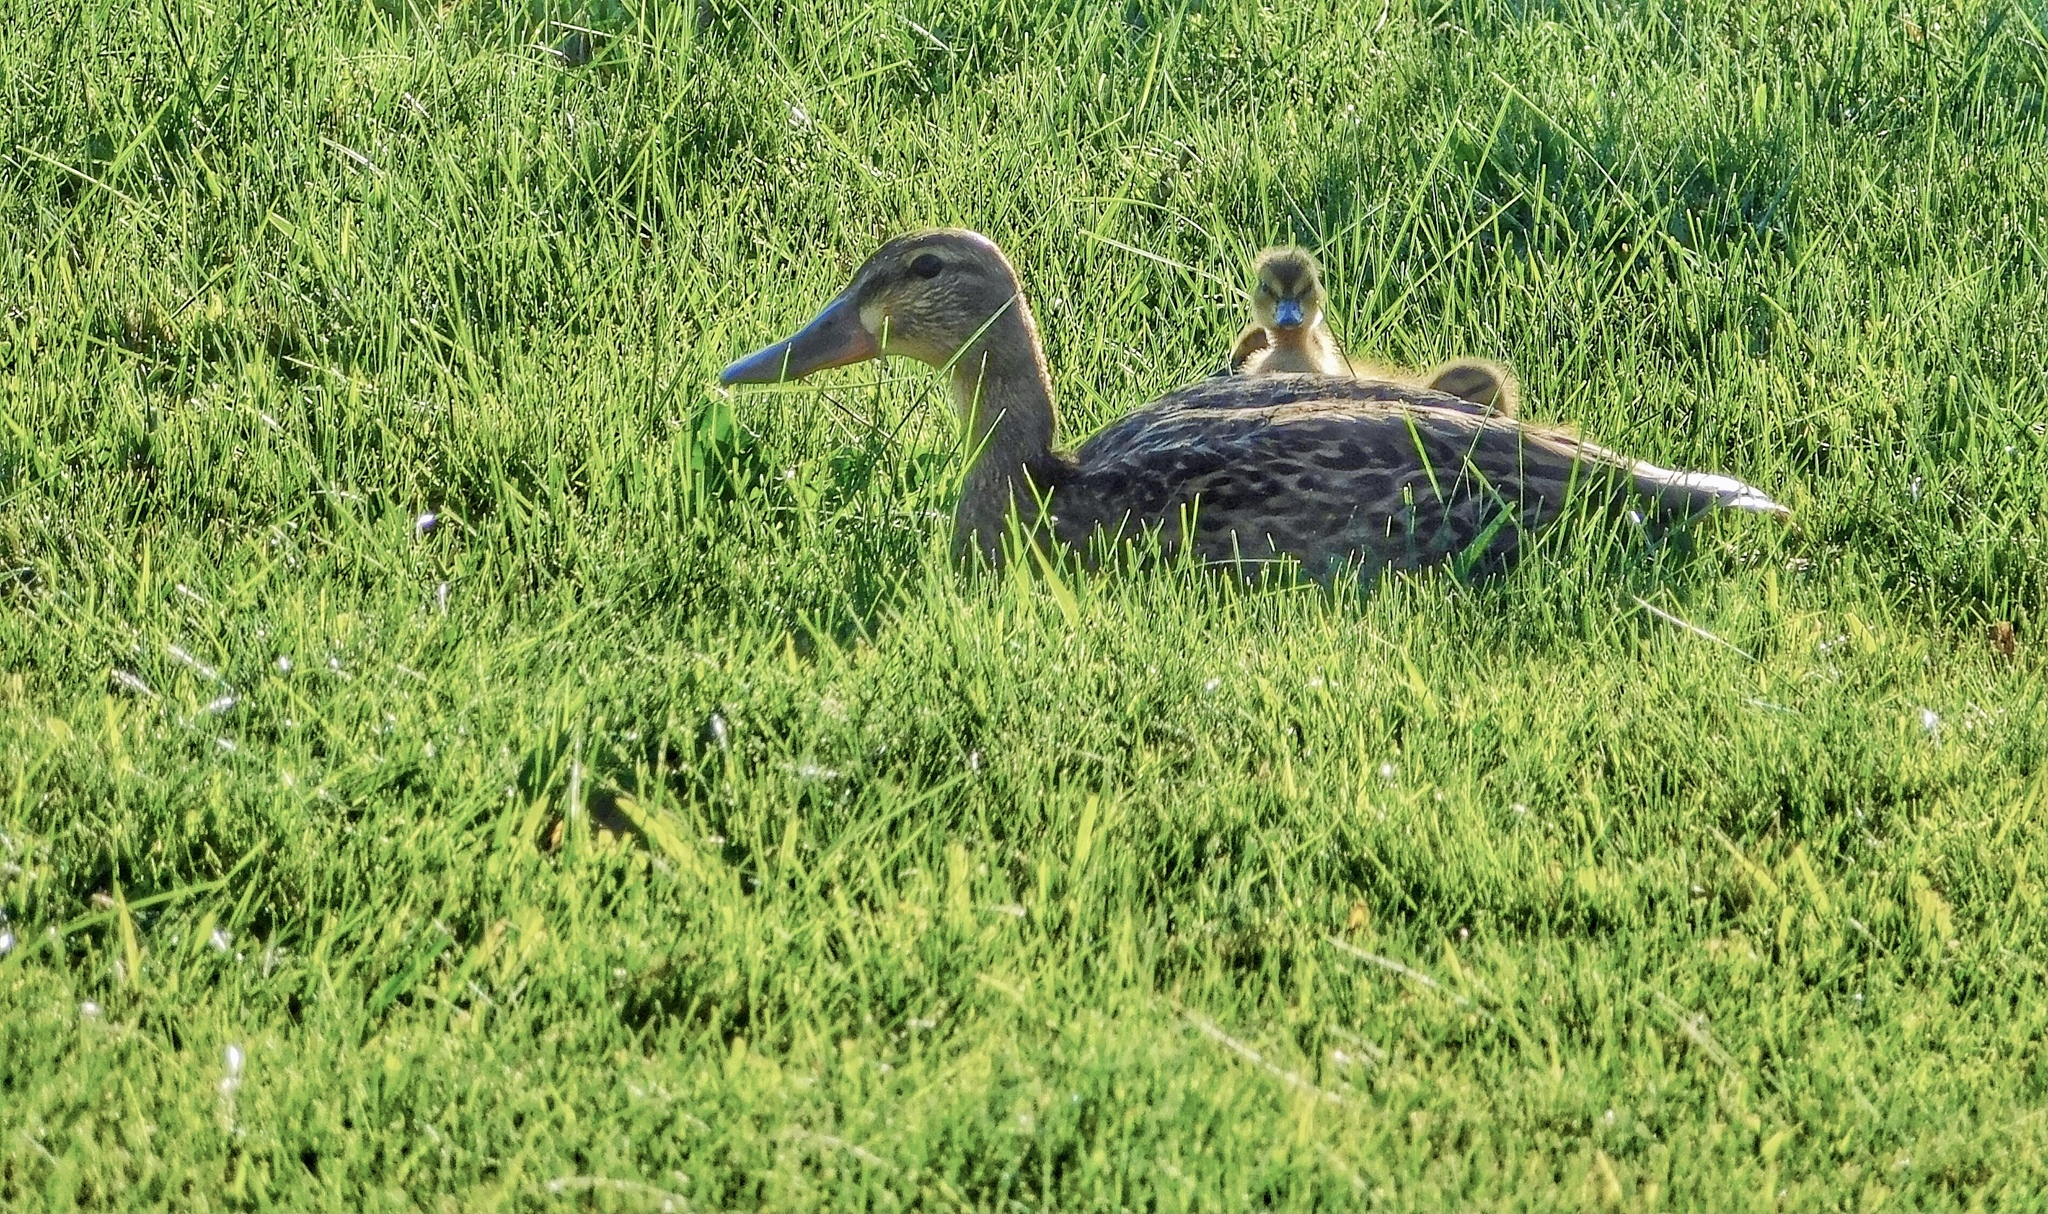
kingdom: Animalia
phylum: Chordata
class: Aves
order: Anseriformes
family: Anatidae
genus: Anas
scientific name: Anas platyrhynchos
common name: Mallard
